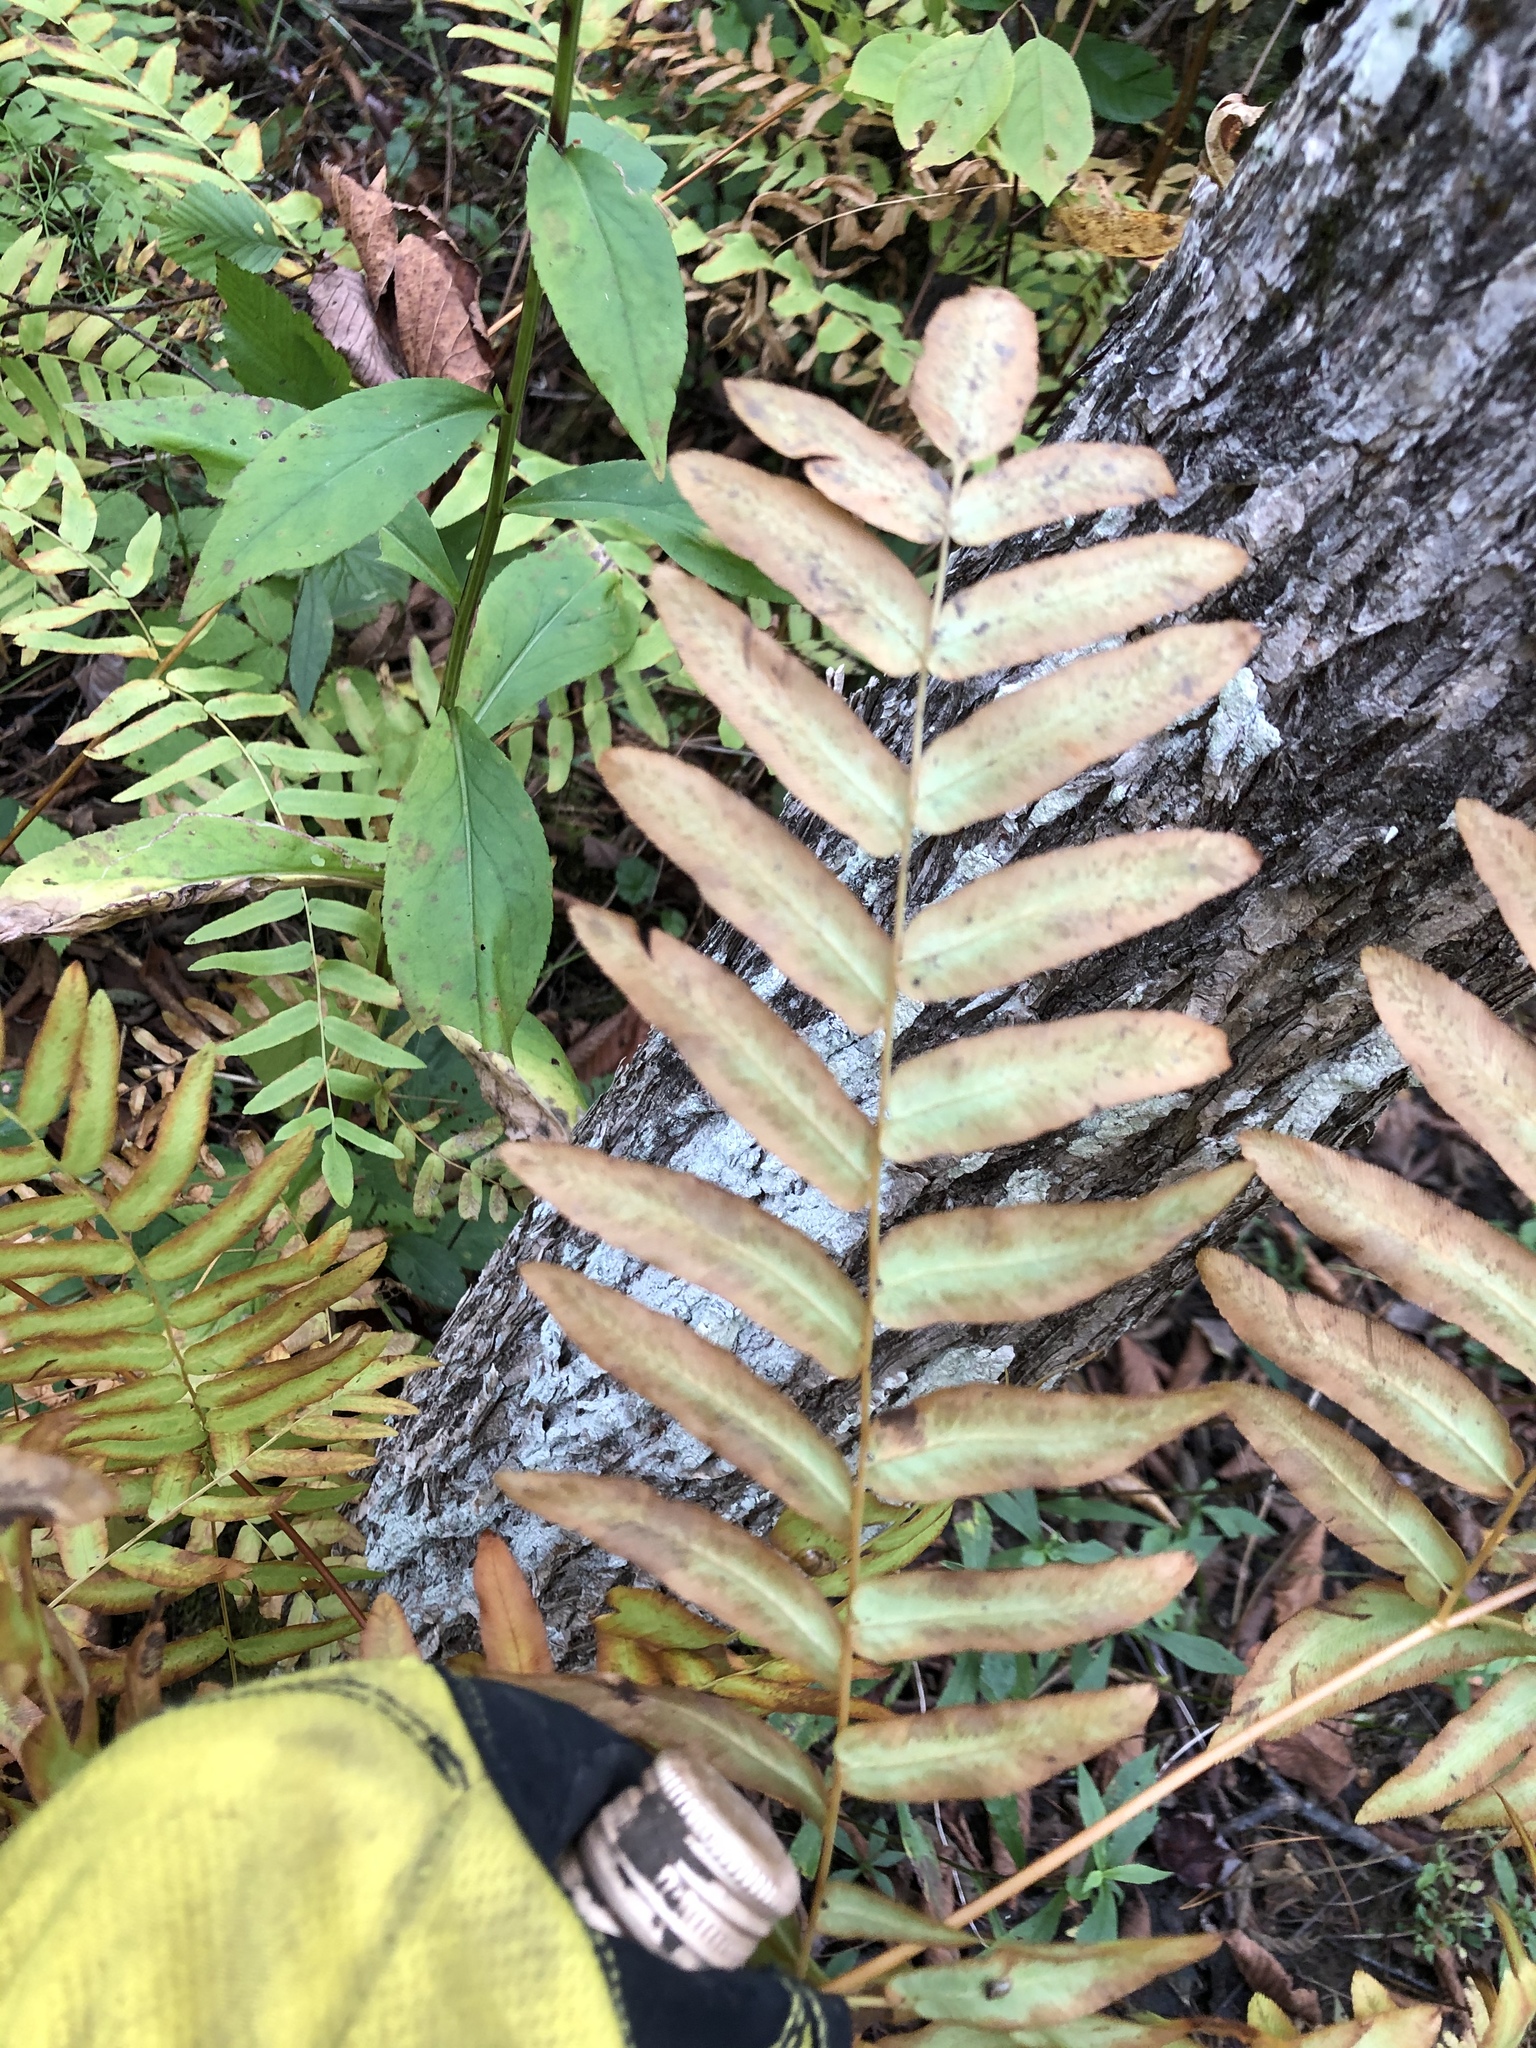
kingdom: Plantae
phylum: Tracheophyta
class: Polypodiopsida
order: Osmundales
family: Osmundaceae
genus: Osmunda
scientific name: Osmunda spectabilis
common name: American royal fern
